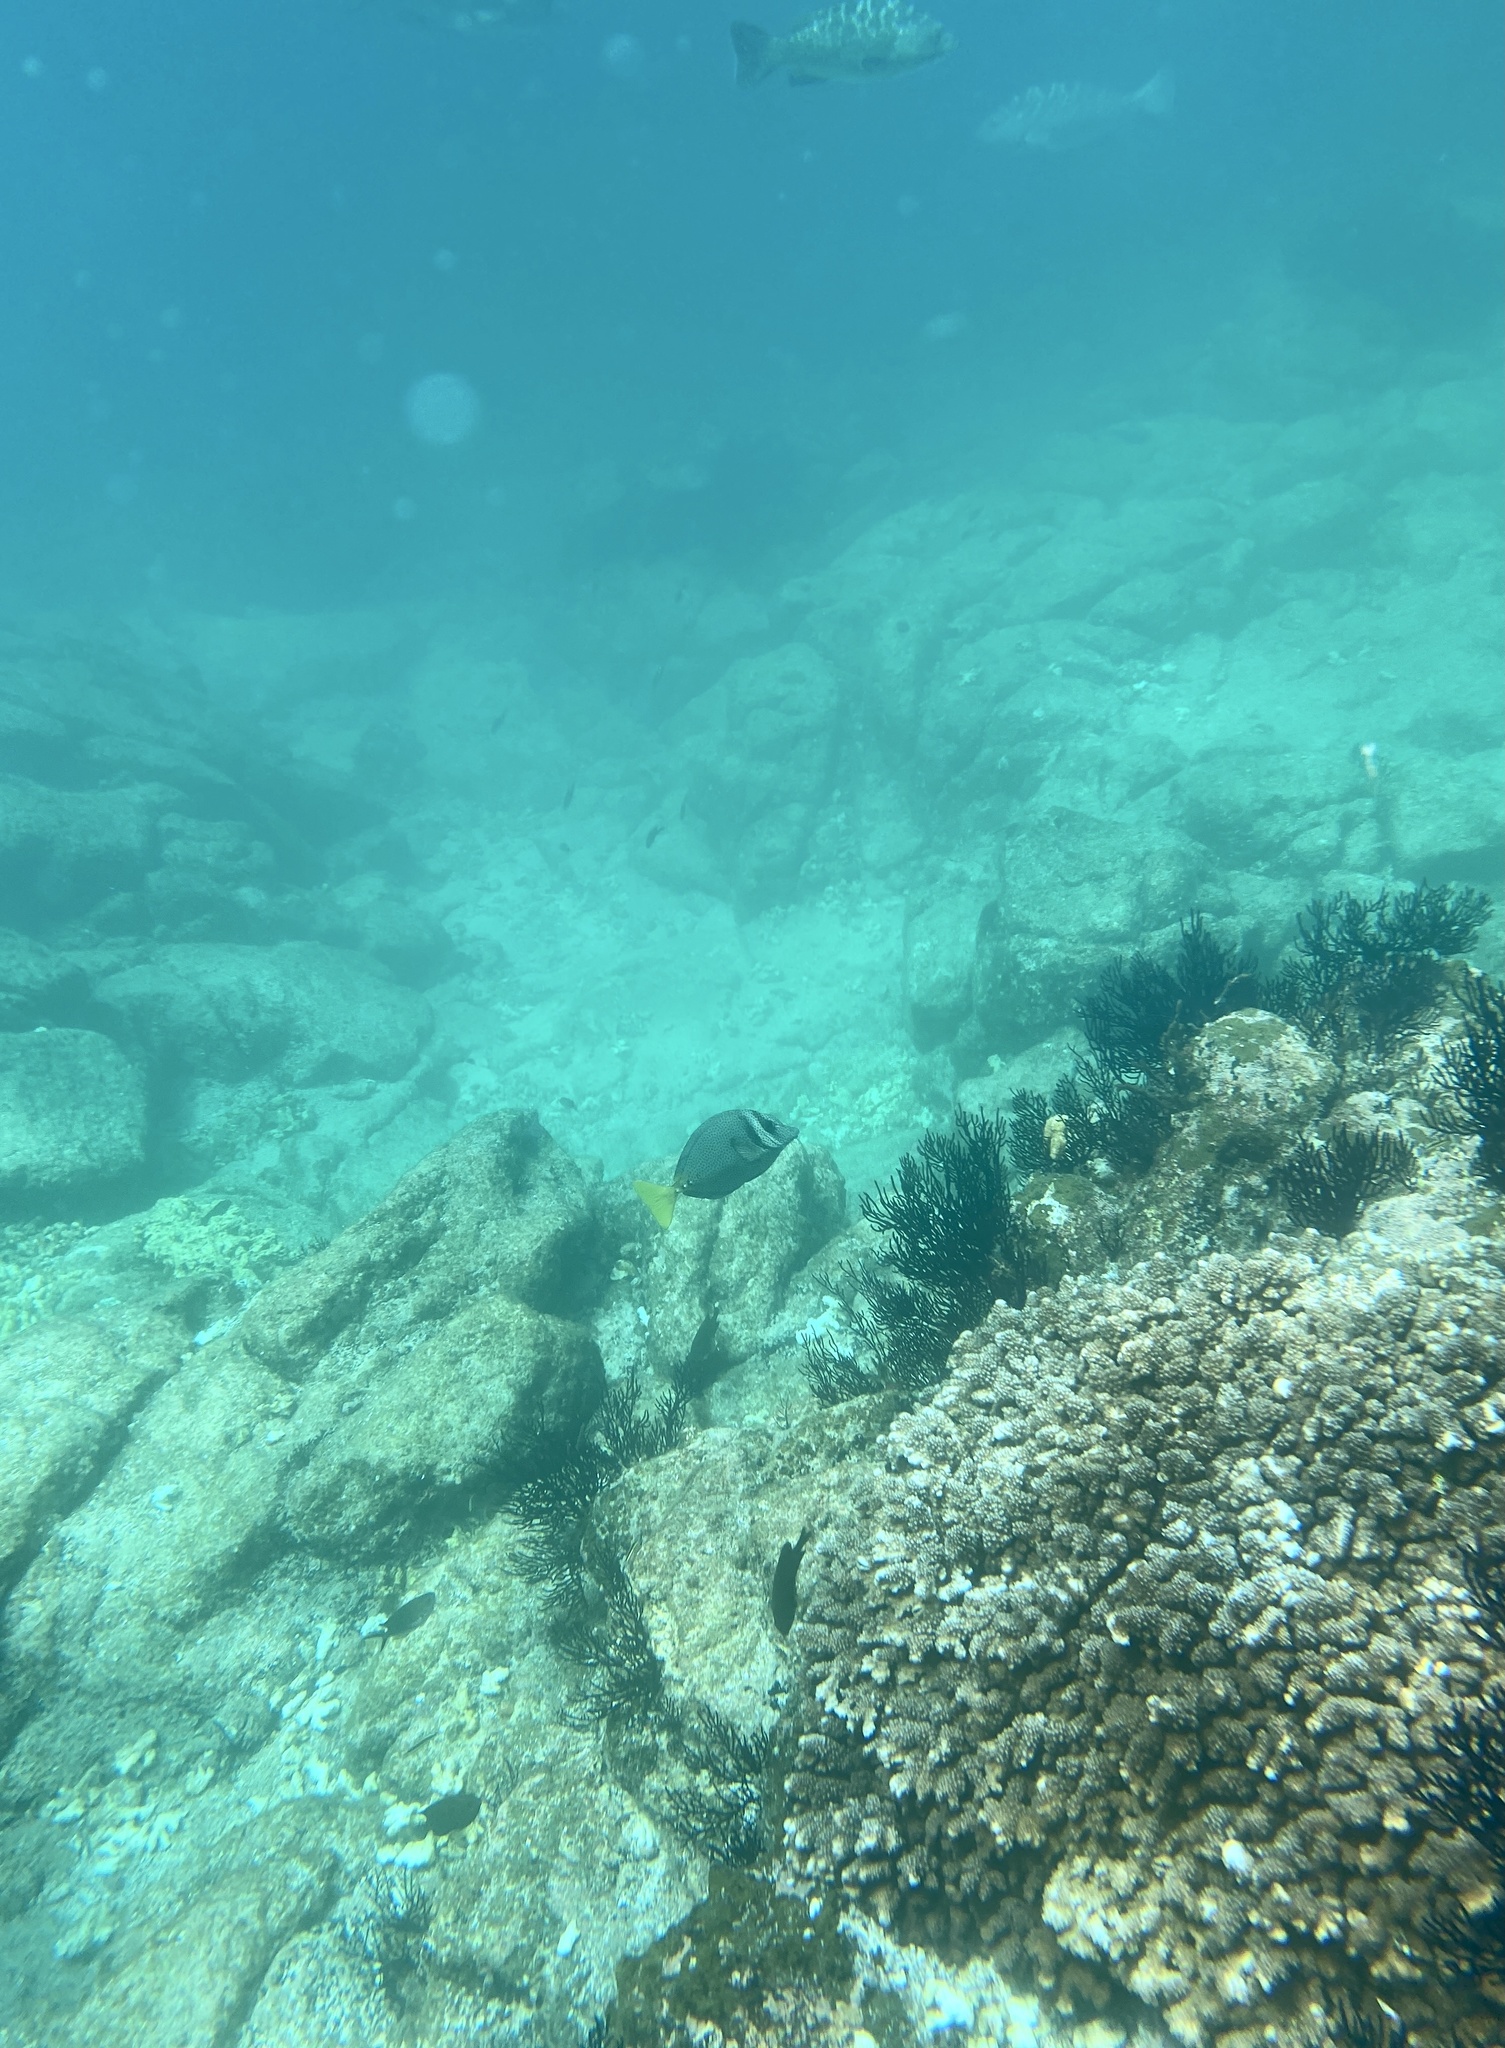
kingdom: Animalia
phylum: Chordata
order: Perciformes
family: Acanthuridae
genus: Prionurus
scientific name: Prionurus laticlavius
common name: Razor surgeonfish
